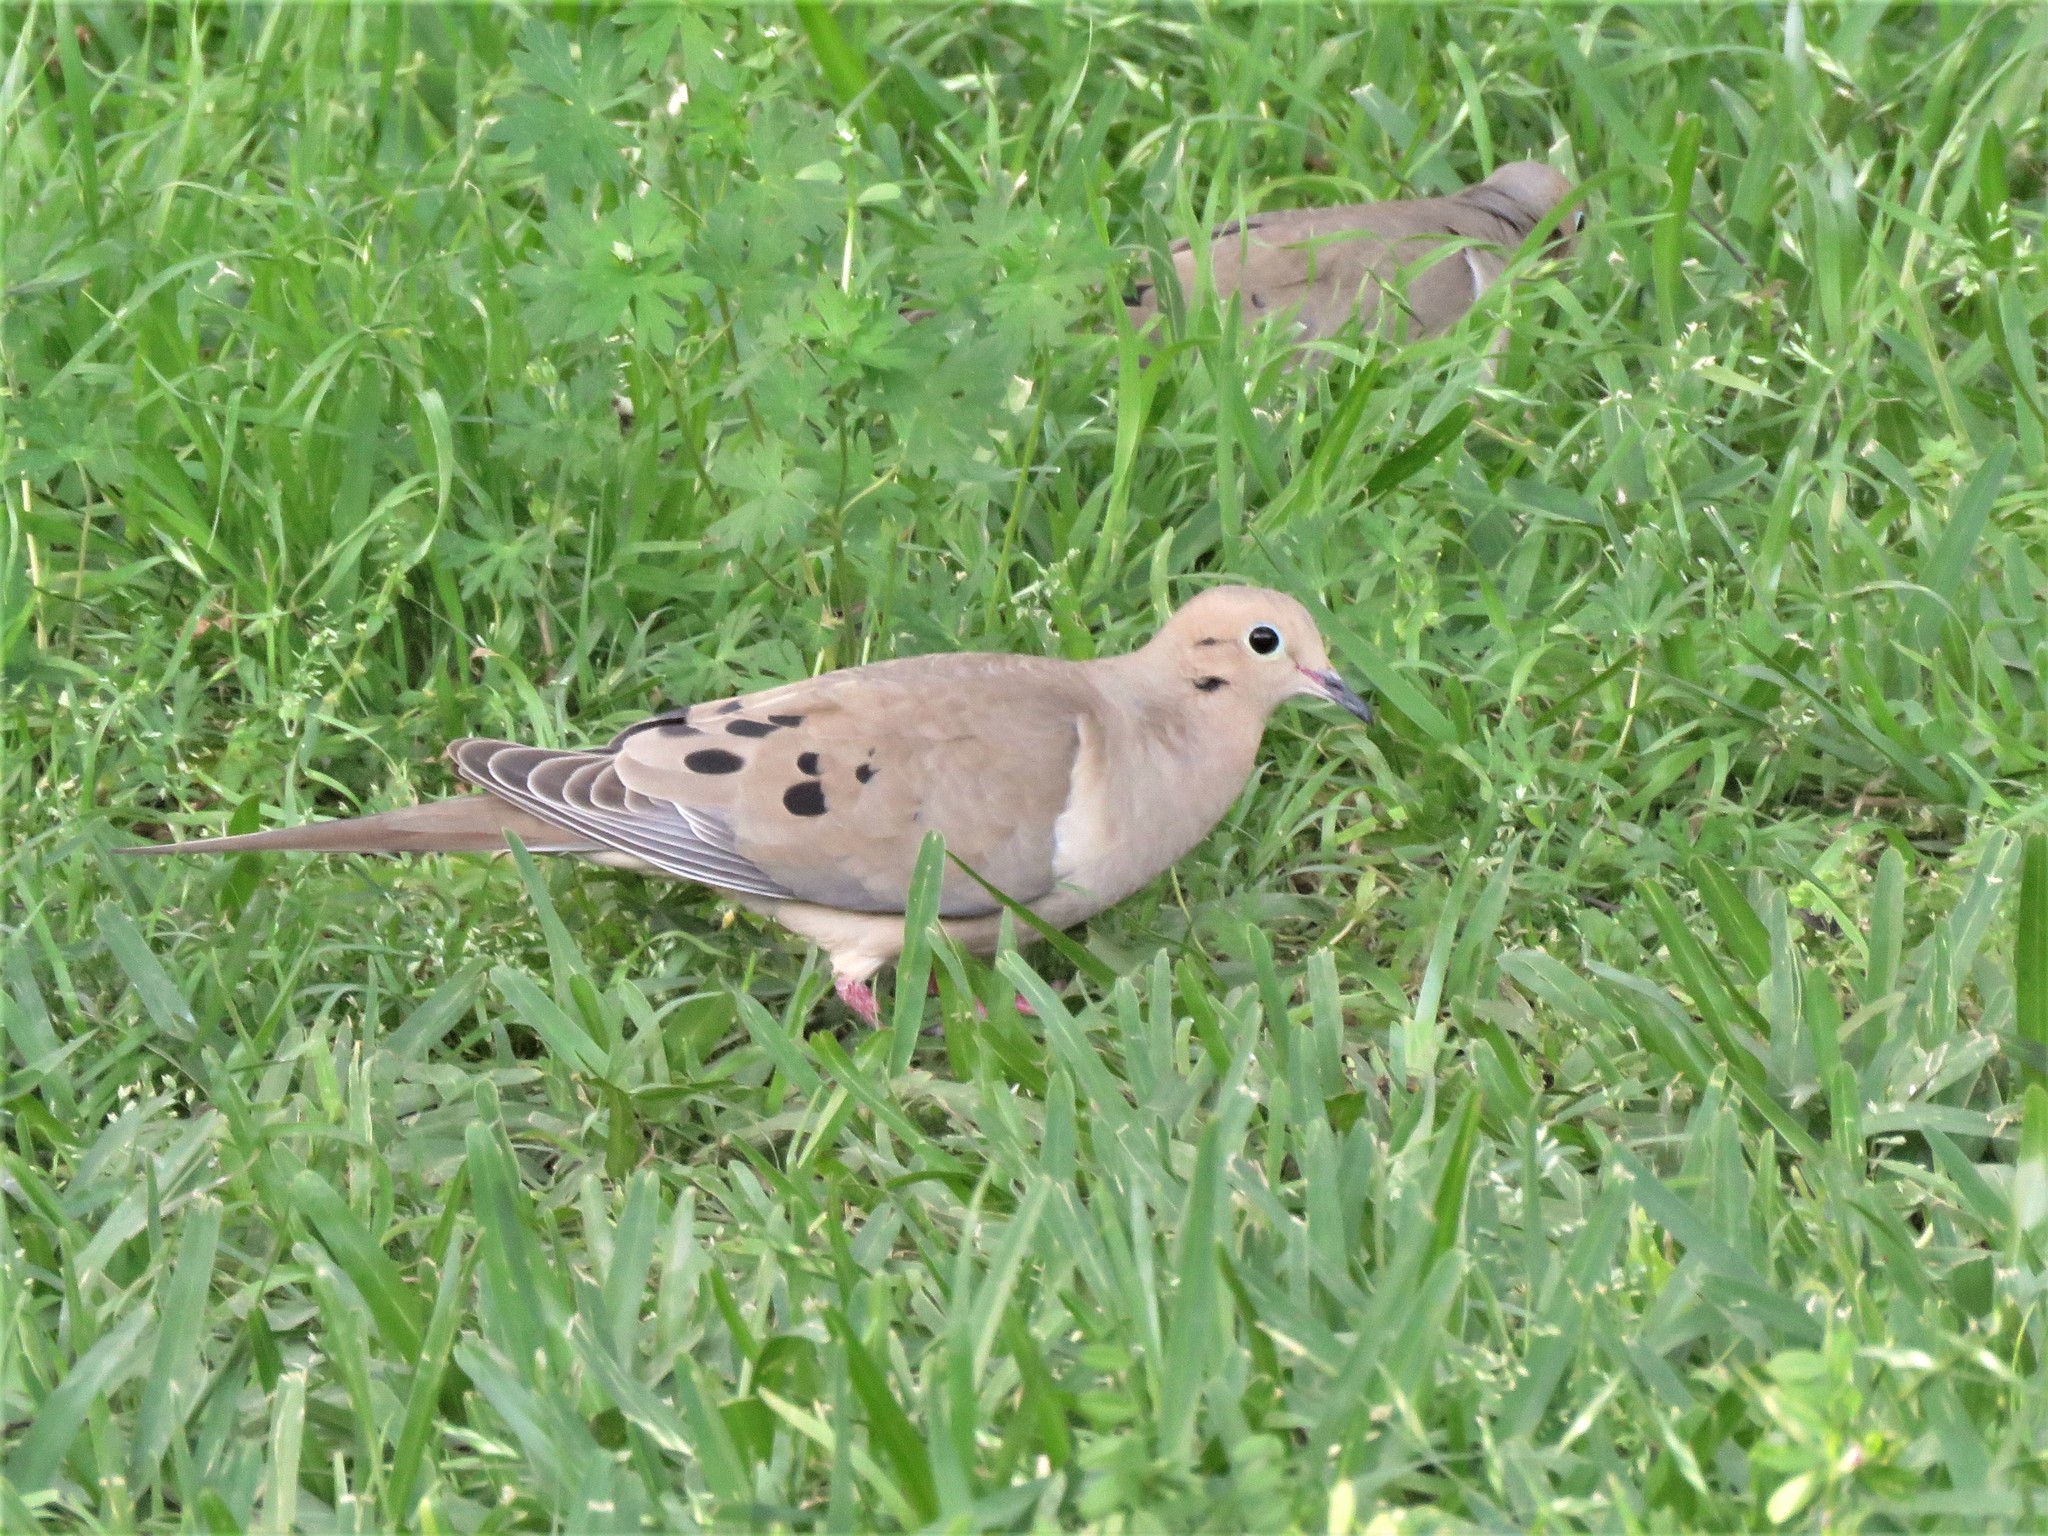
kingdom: Animalia
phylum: Chordata
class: Aves
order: Columbiformes
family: Columbidae
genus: Zenaida
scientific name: Zenaida macroura
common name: Mourning dove
